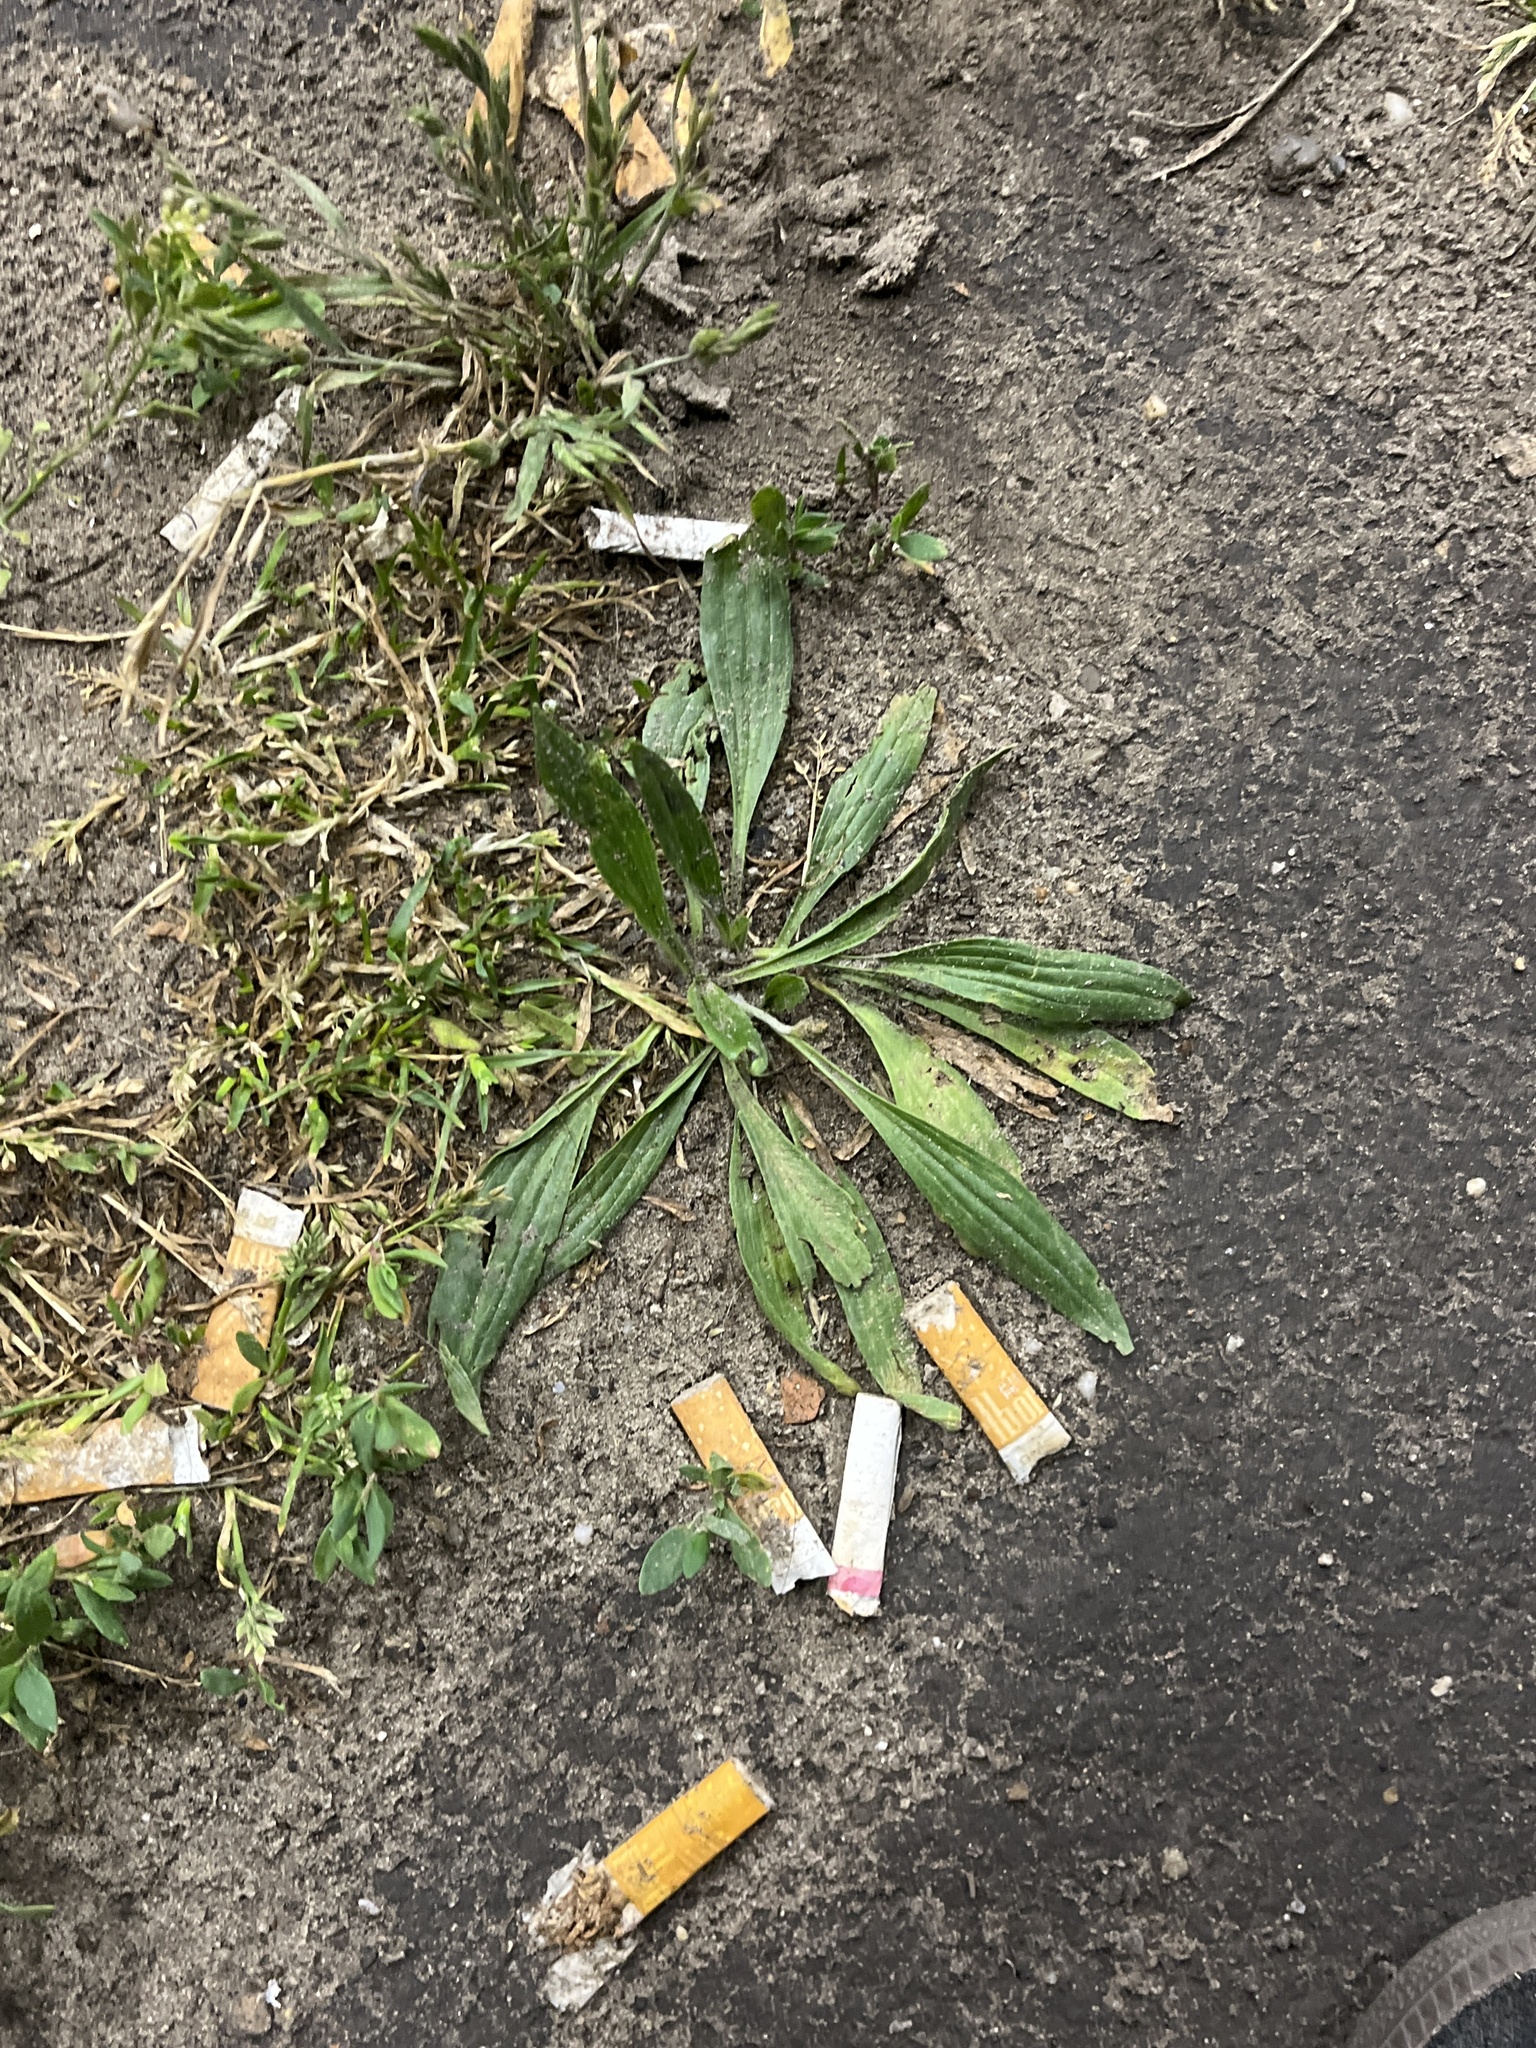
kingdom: Plantae
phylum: Tracheophyta
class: Magnoliopsida
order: Lamiales
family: Plantaginaceae
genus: Plantago
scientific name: Plantago lanceolata
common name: Ribwort plantain
